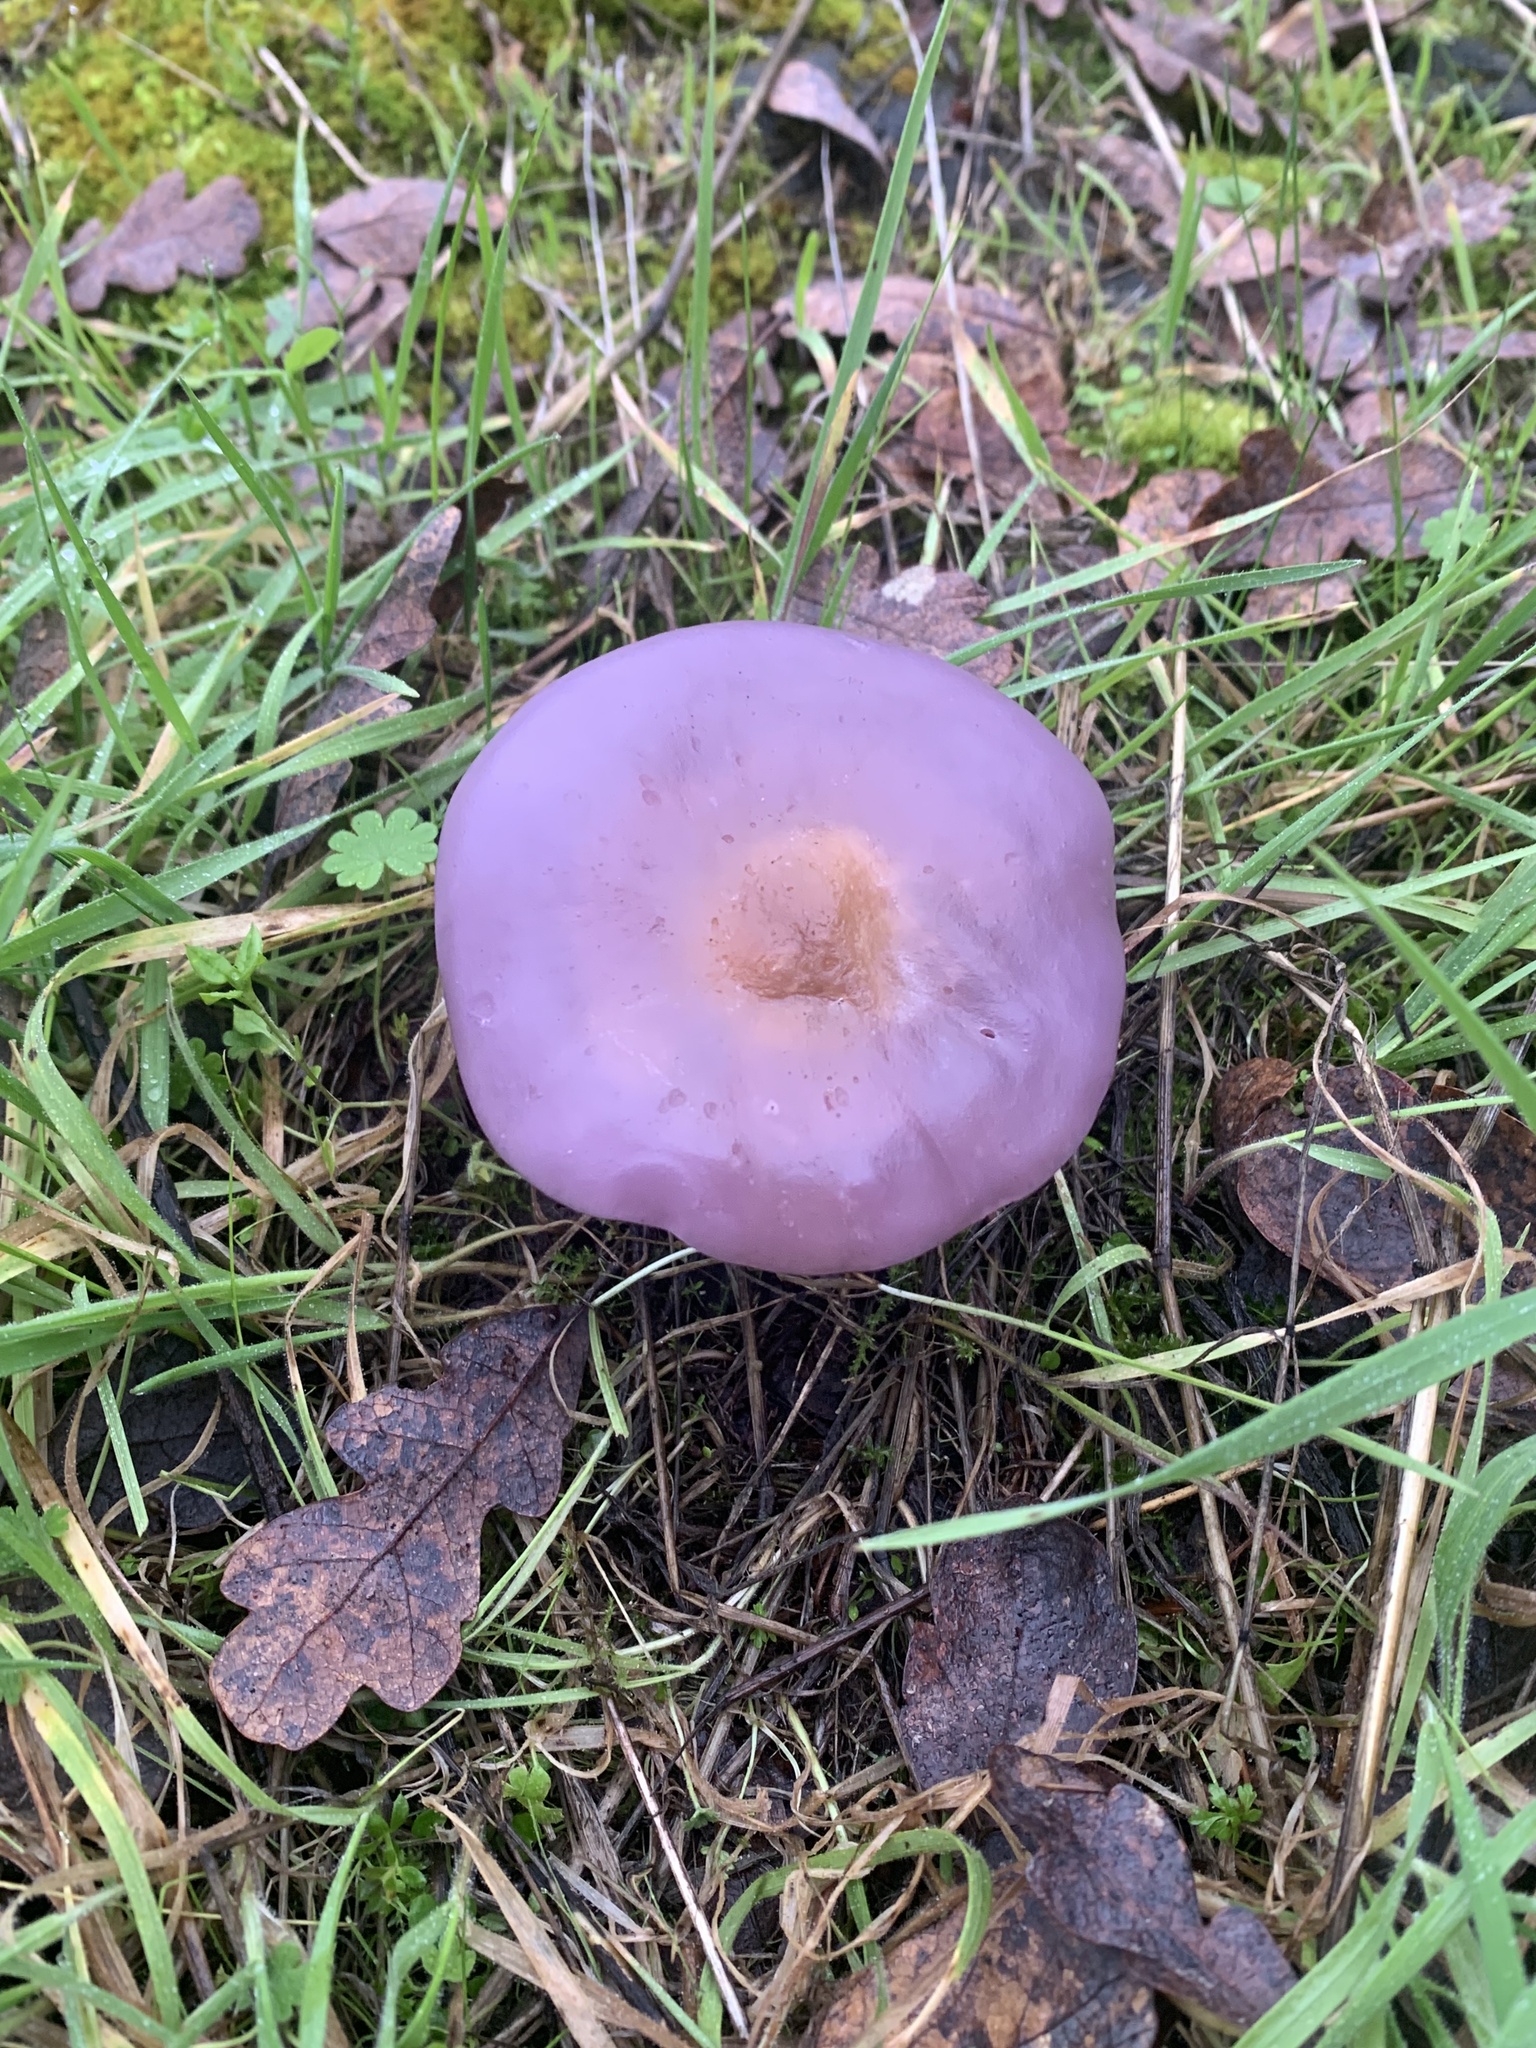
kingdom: Fungi
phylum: Basidiomycota
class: Agaricomycetes
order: Agaricales
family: Tricholomataceae
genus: Collybia
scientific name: Collybia
